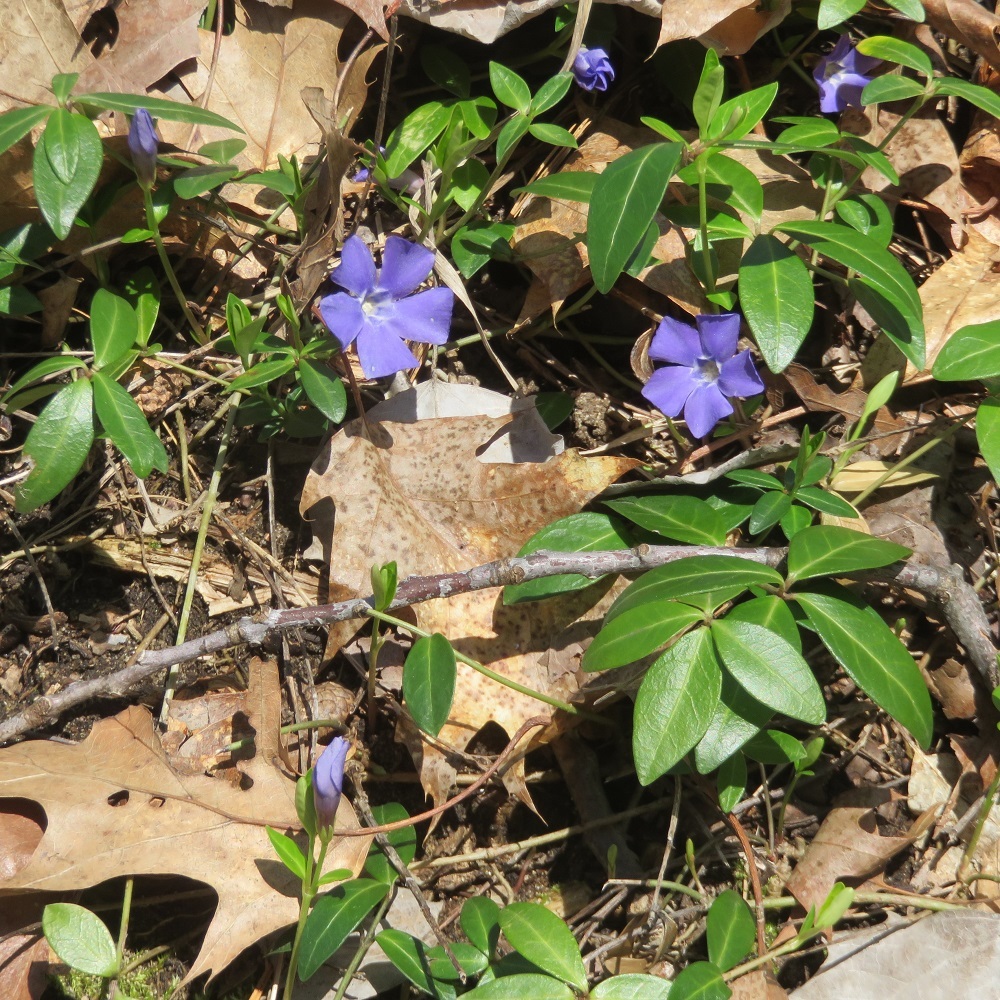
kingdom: Plantae
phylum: Tracheophyta
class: Magnoliopsida
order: Gentianales
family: Apocynaceae
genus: Vinca
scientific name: Vinca minor
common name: Lesser periwinkle
